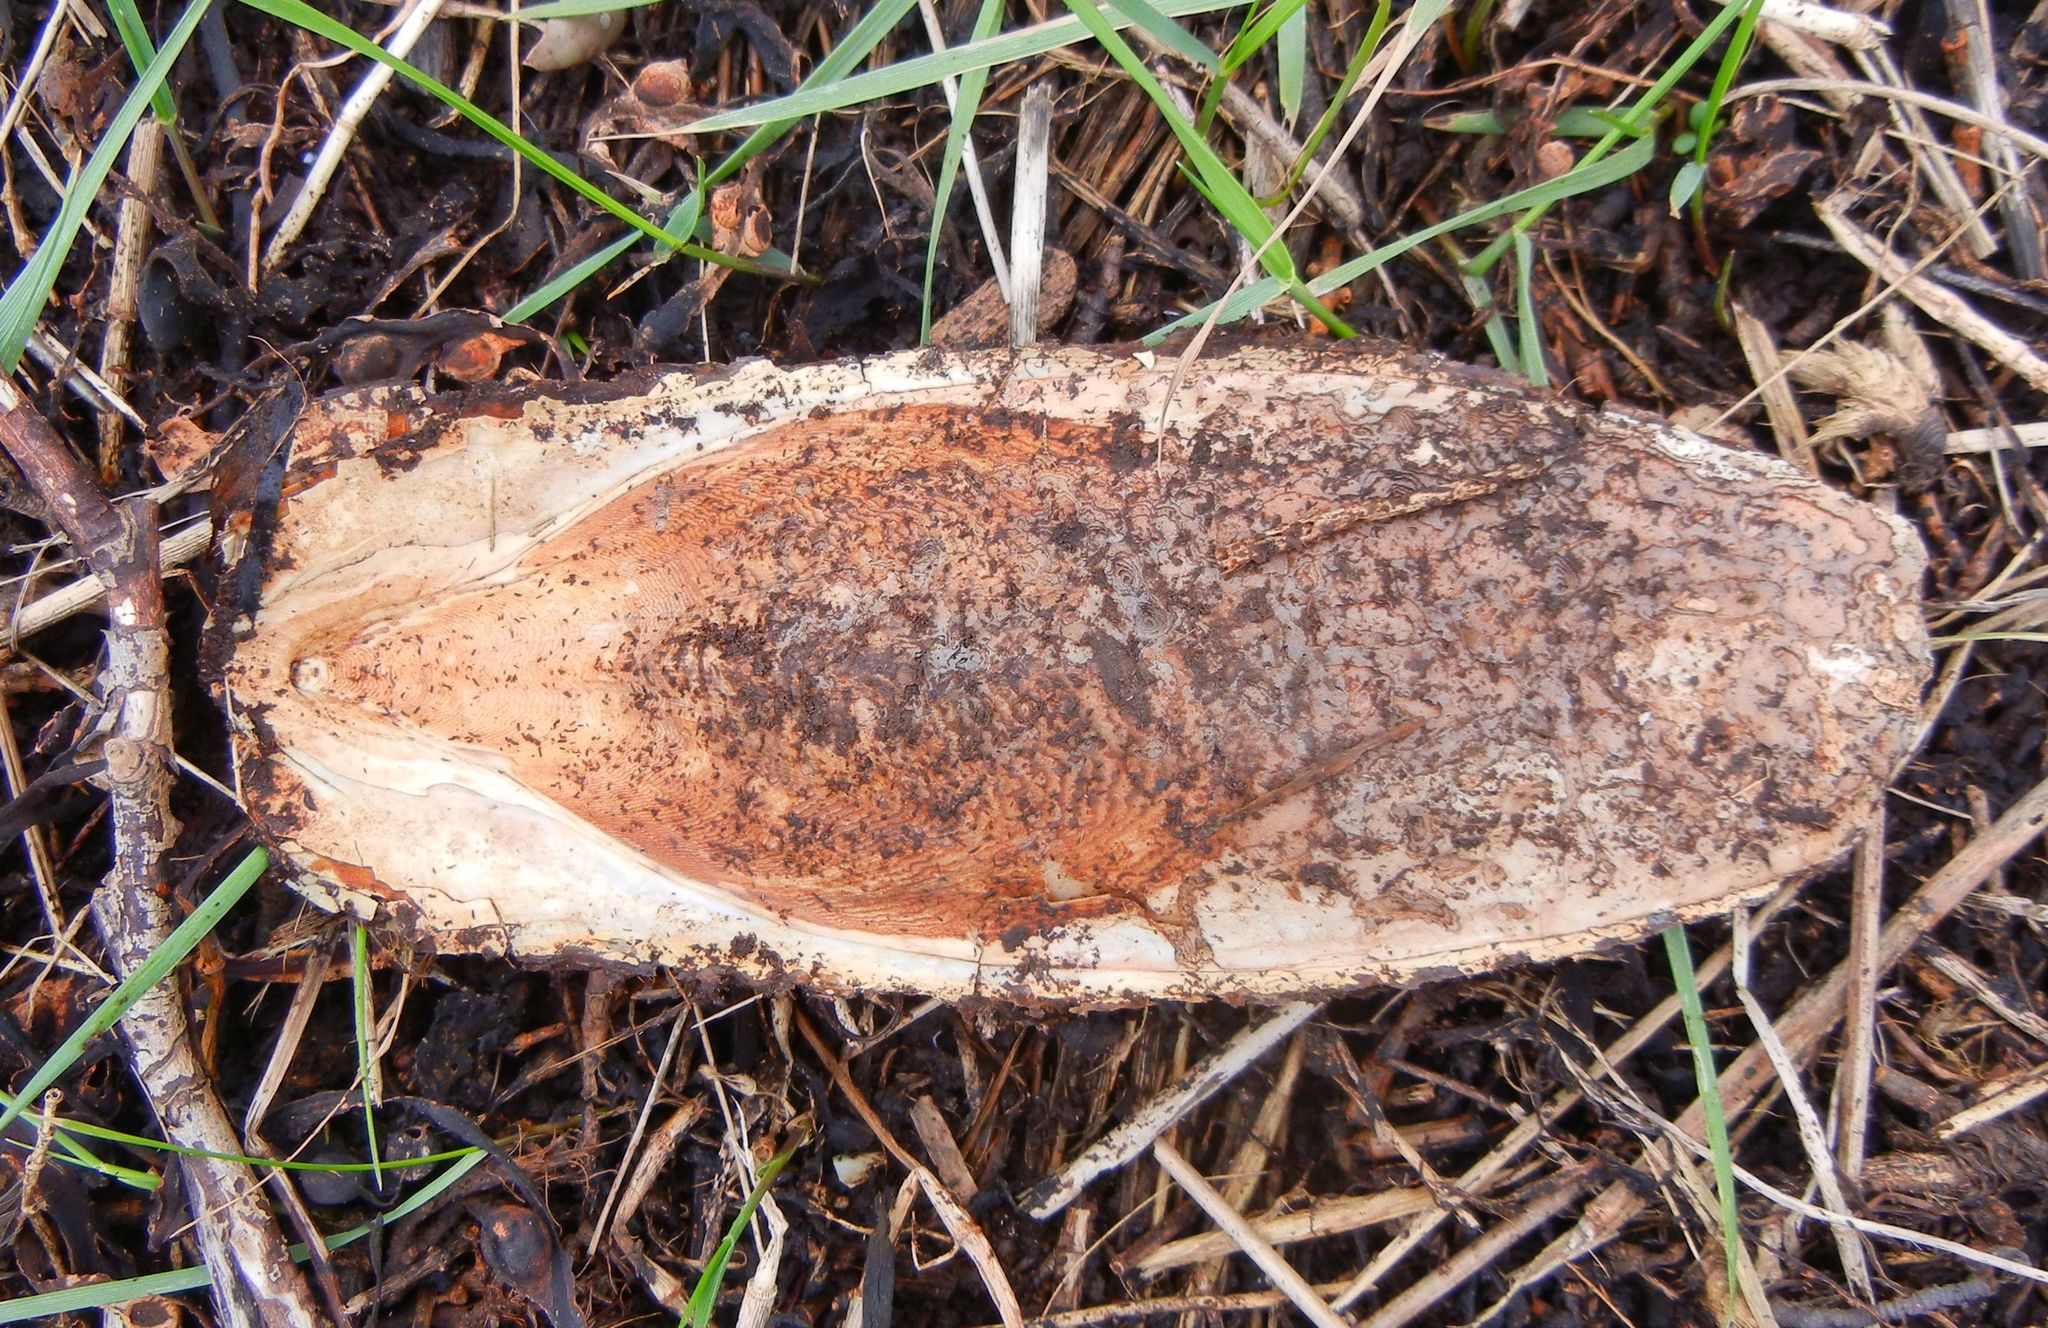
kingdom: Animalia
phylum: Mollusca
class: Cephalopoda
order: Sepiida
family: Sepiidae
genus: Sepia
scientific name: Sepia officinalis
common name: Common cuttlefish
